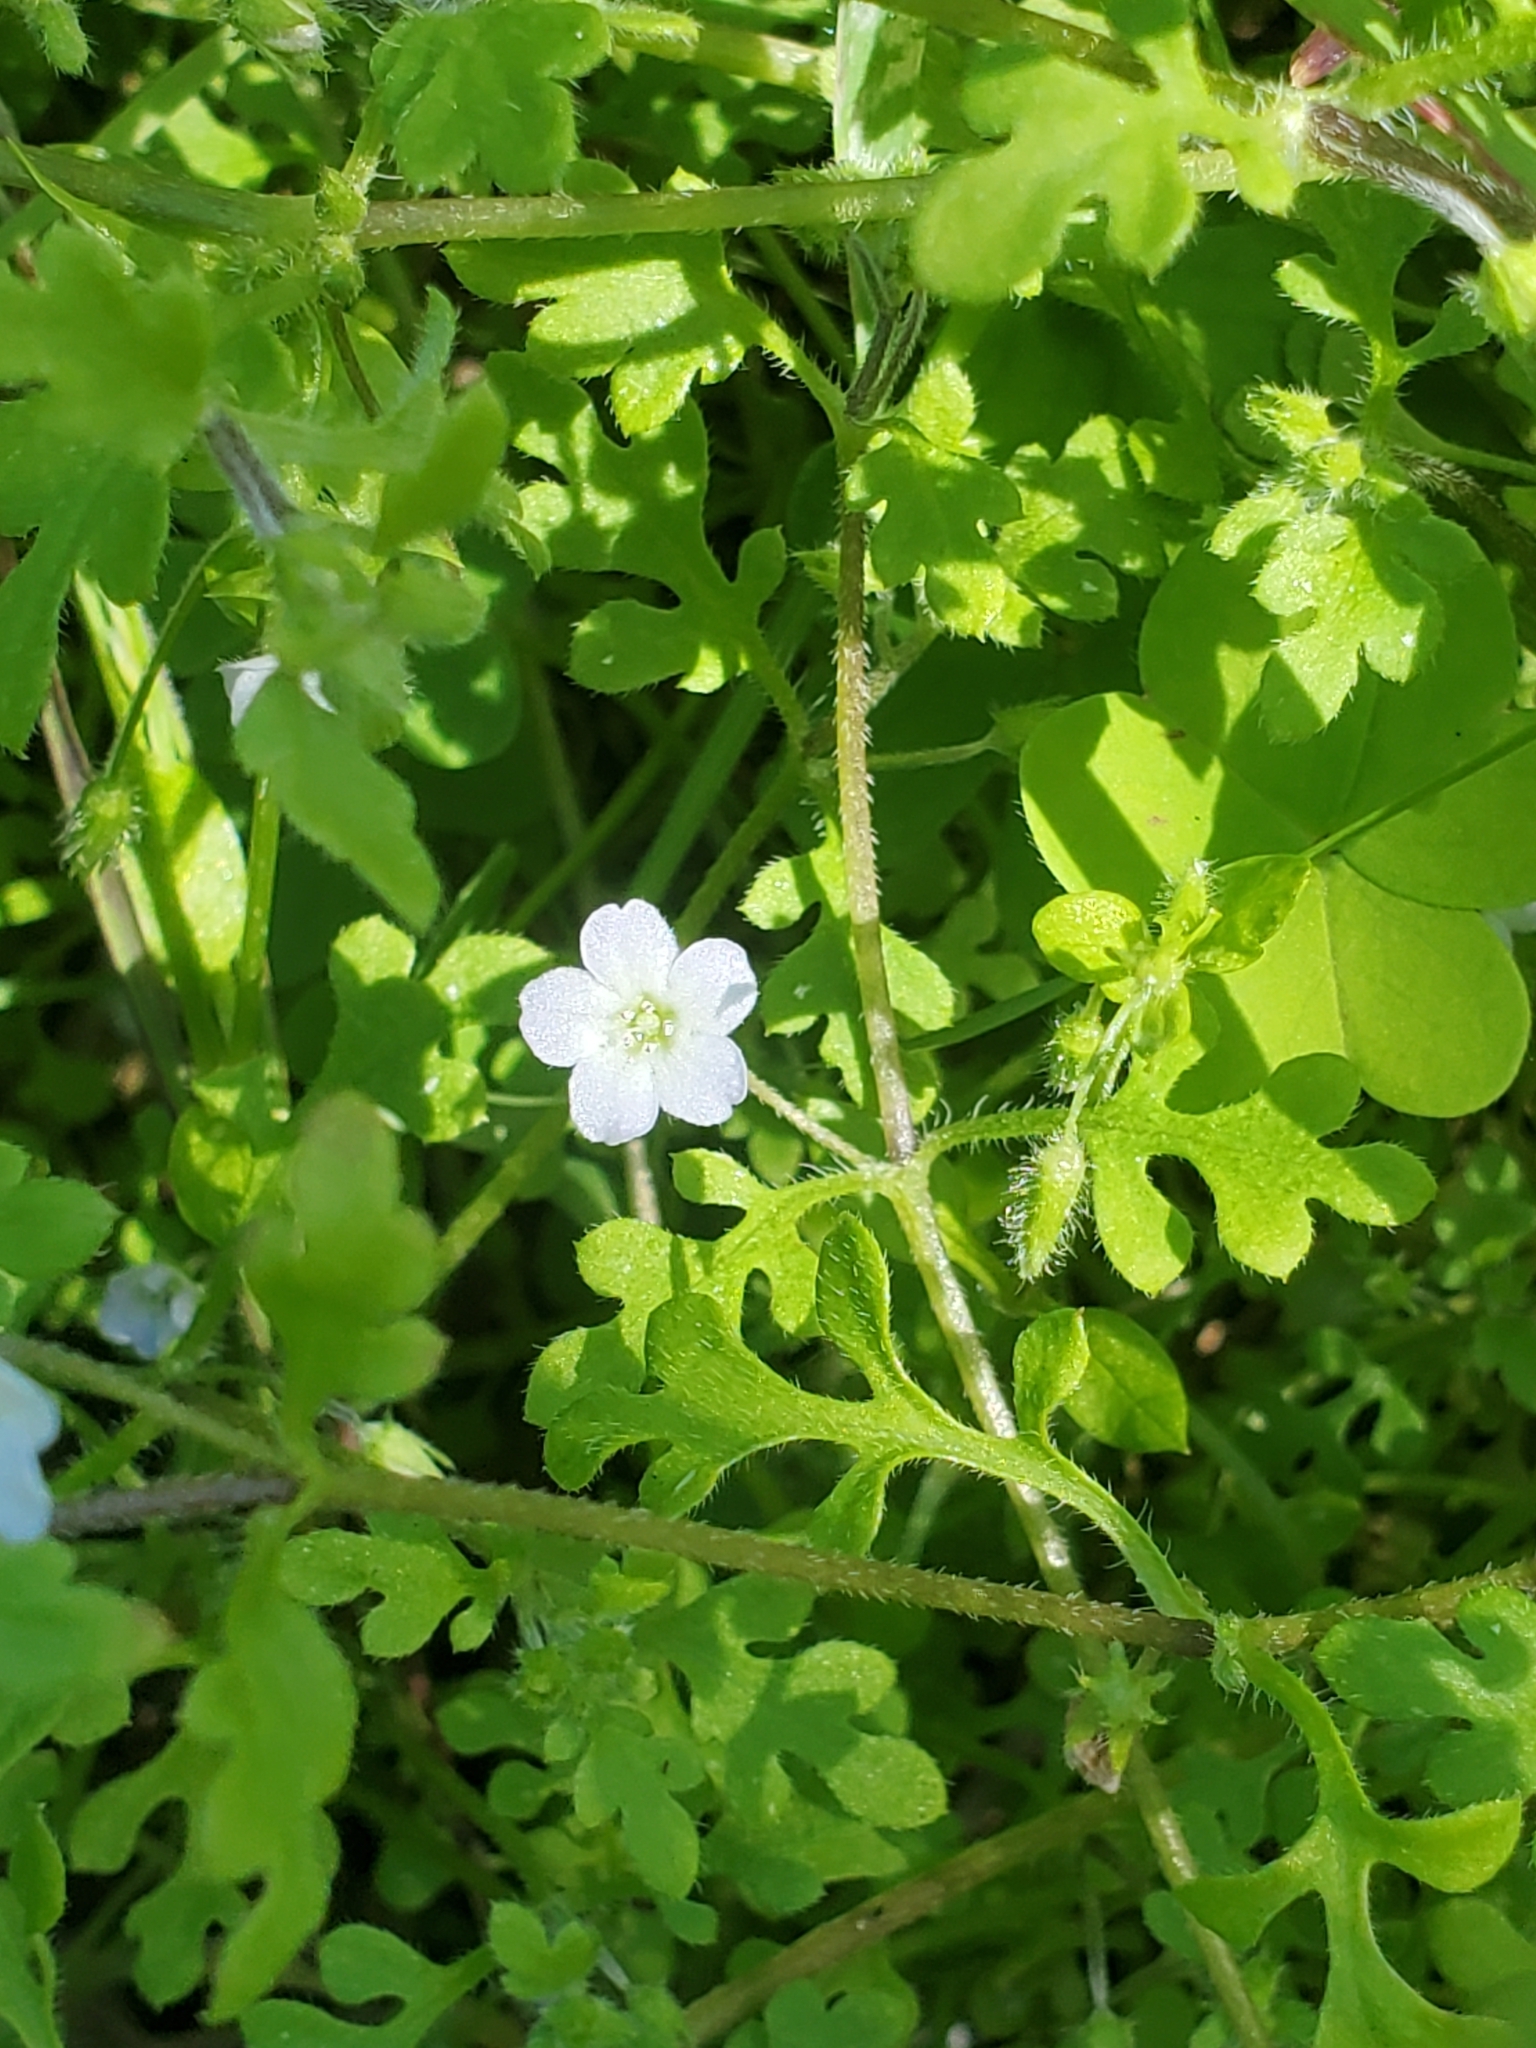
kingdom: Plantae
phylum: Tracheophyta
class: Magnoliopsida
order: Boraginales
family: Hydrophyllaceae
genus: Nemophila
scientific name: Nemophila heterophylla
